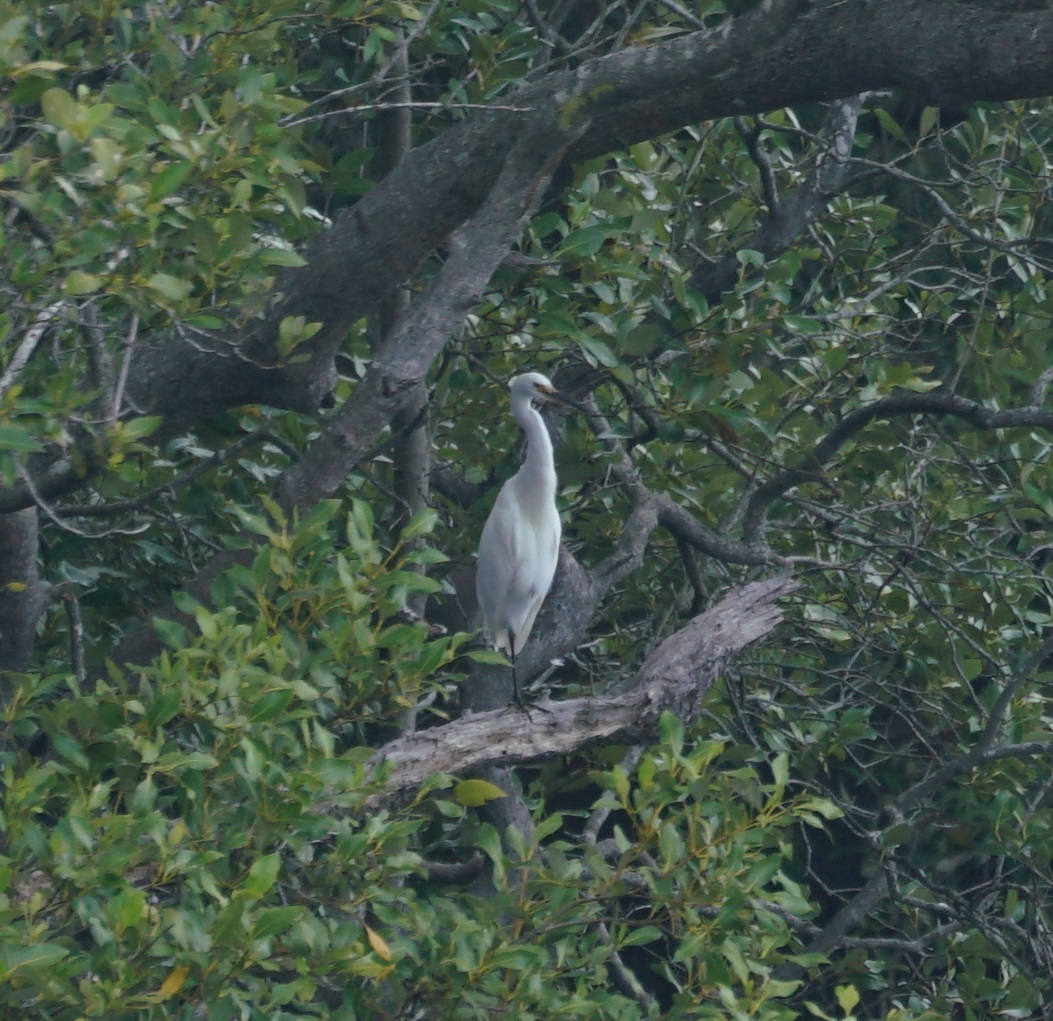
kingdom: Animalia
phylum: Chordata
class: Aves
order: Pelecaniformes
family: Ardeidae
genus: Egretta
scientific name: Egretta garzetta
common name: Little egret
